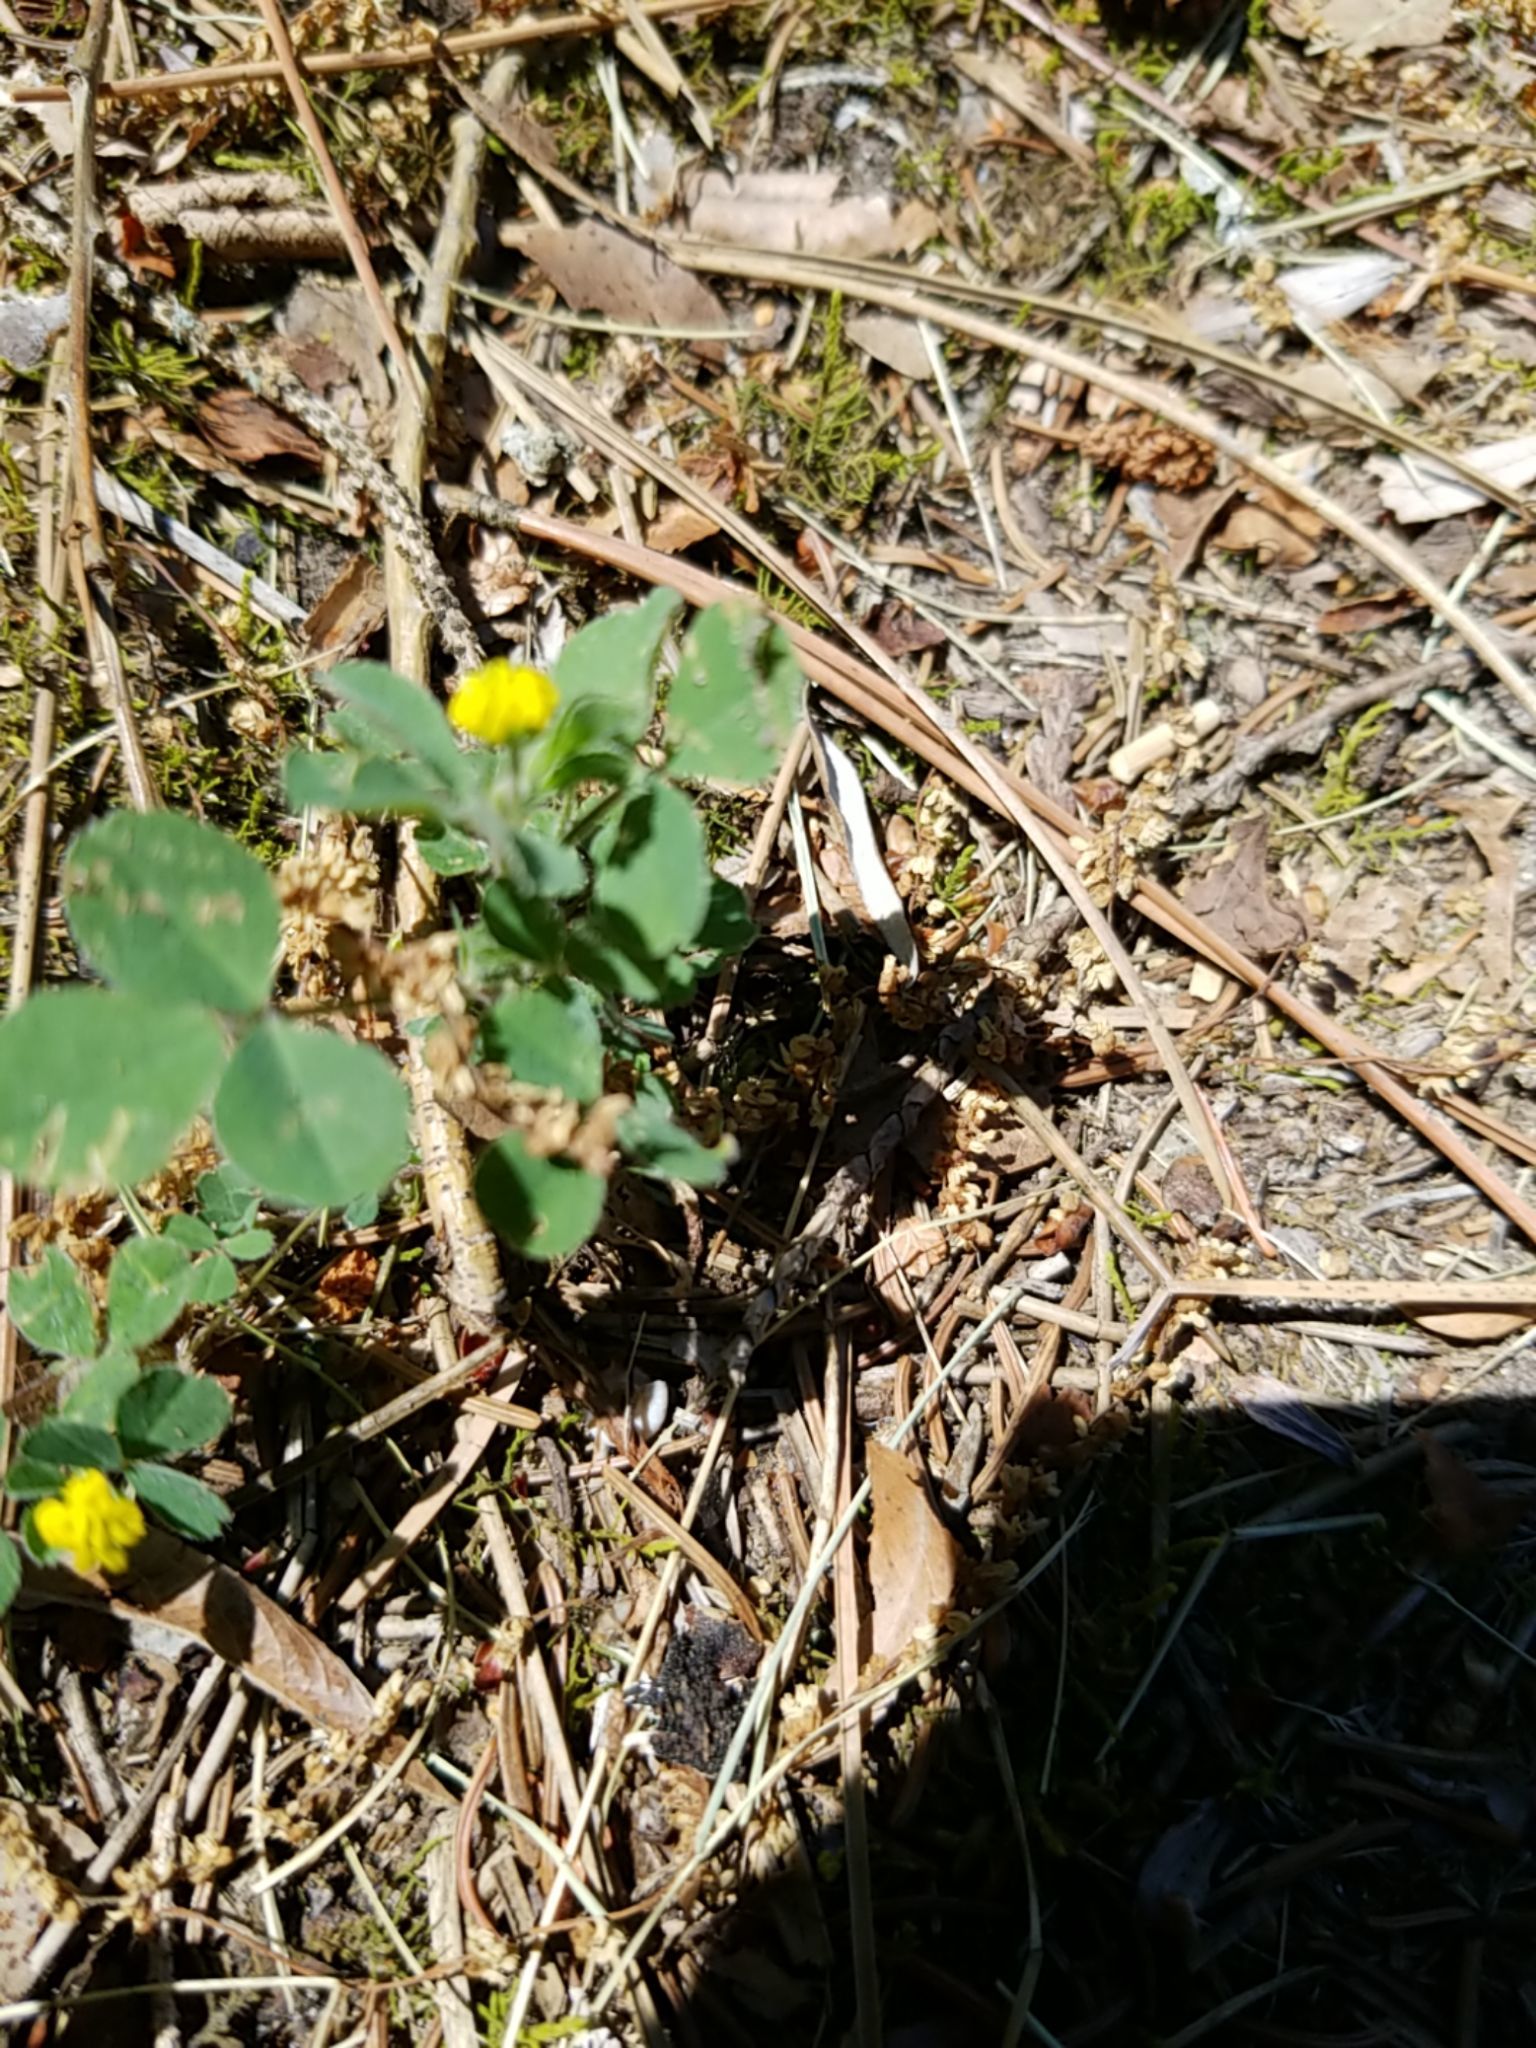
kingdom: Plantae
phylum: Tracheophyta
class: Magnoliopsida
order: Fabales
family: Fabaceae
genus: Medicago
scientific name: Medicago lupulina
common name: Black medick
